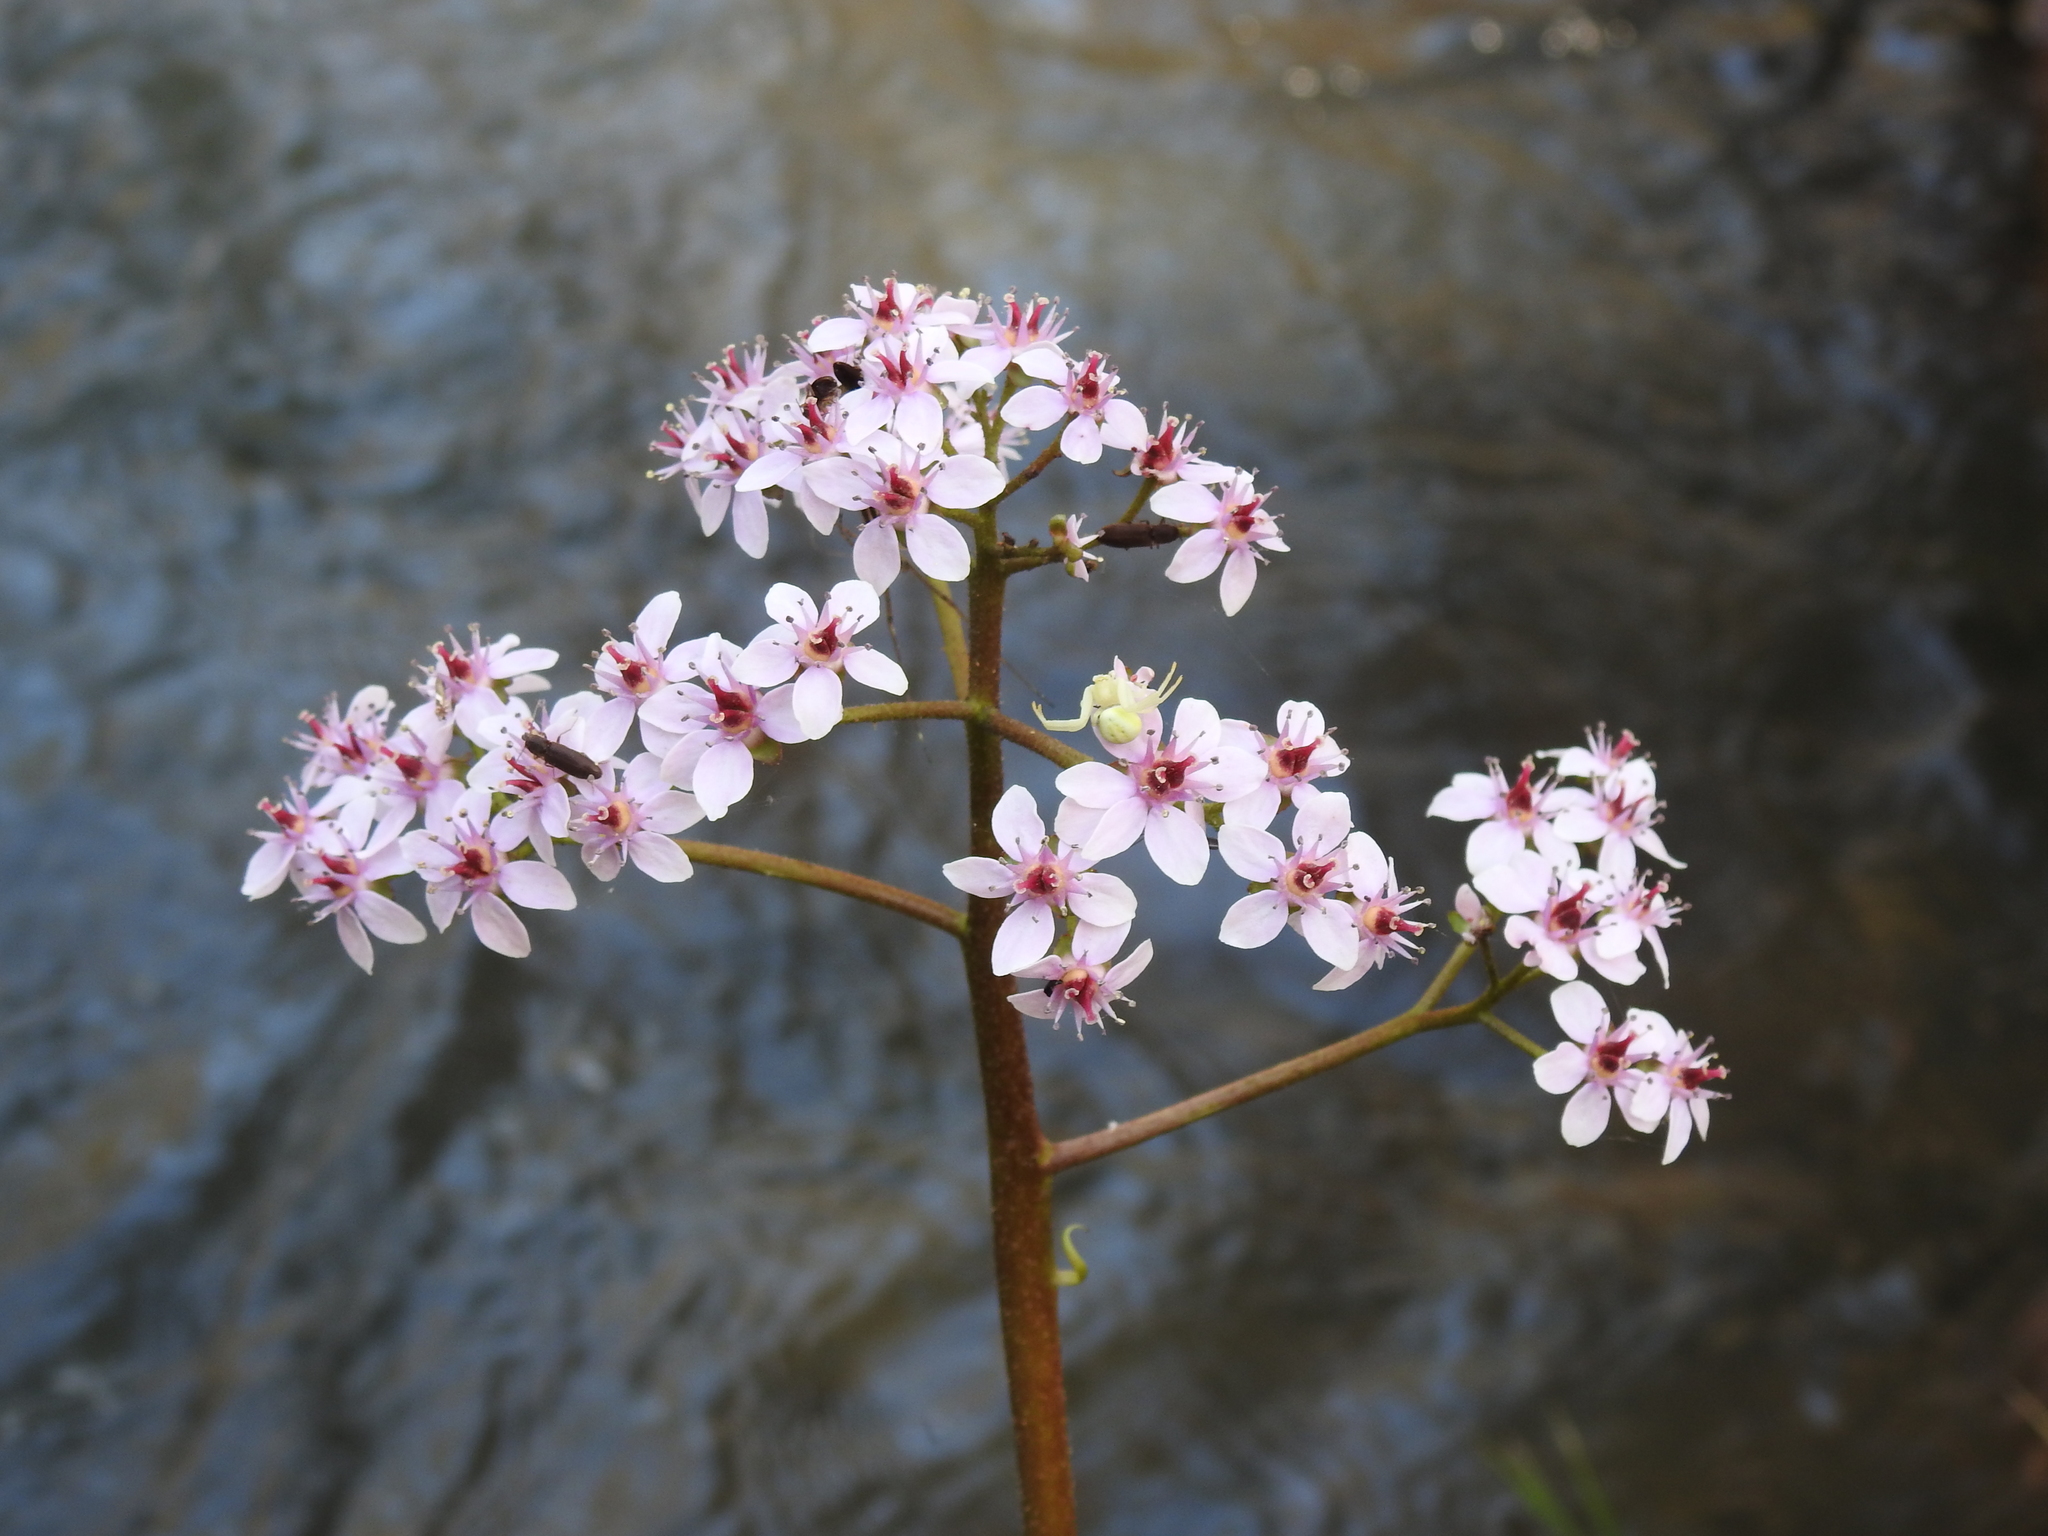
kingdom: Plantae
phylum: Tracheophyta
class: Magnoliopsida
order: Saxifragales
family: Saxifragaceae
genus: Darmera
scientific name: Darmera peltata
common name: Indian-rhubarb
